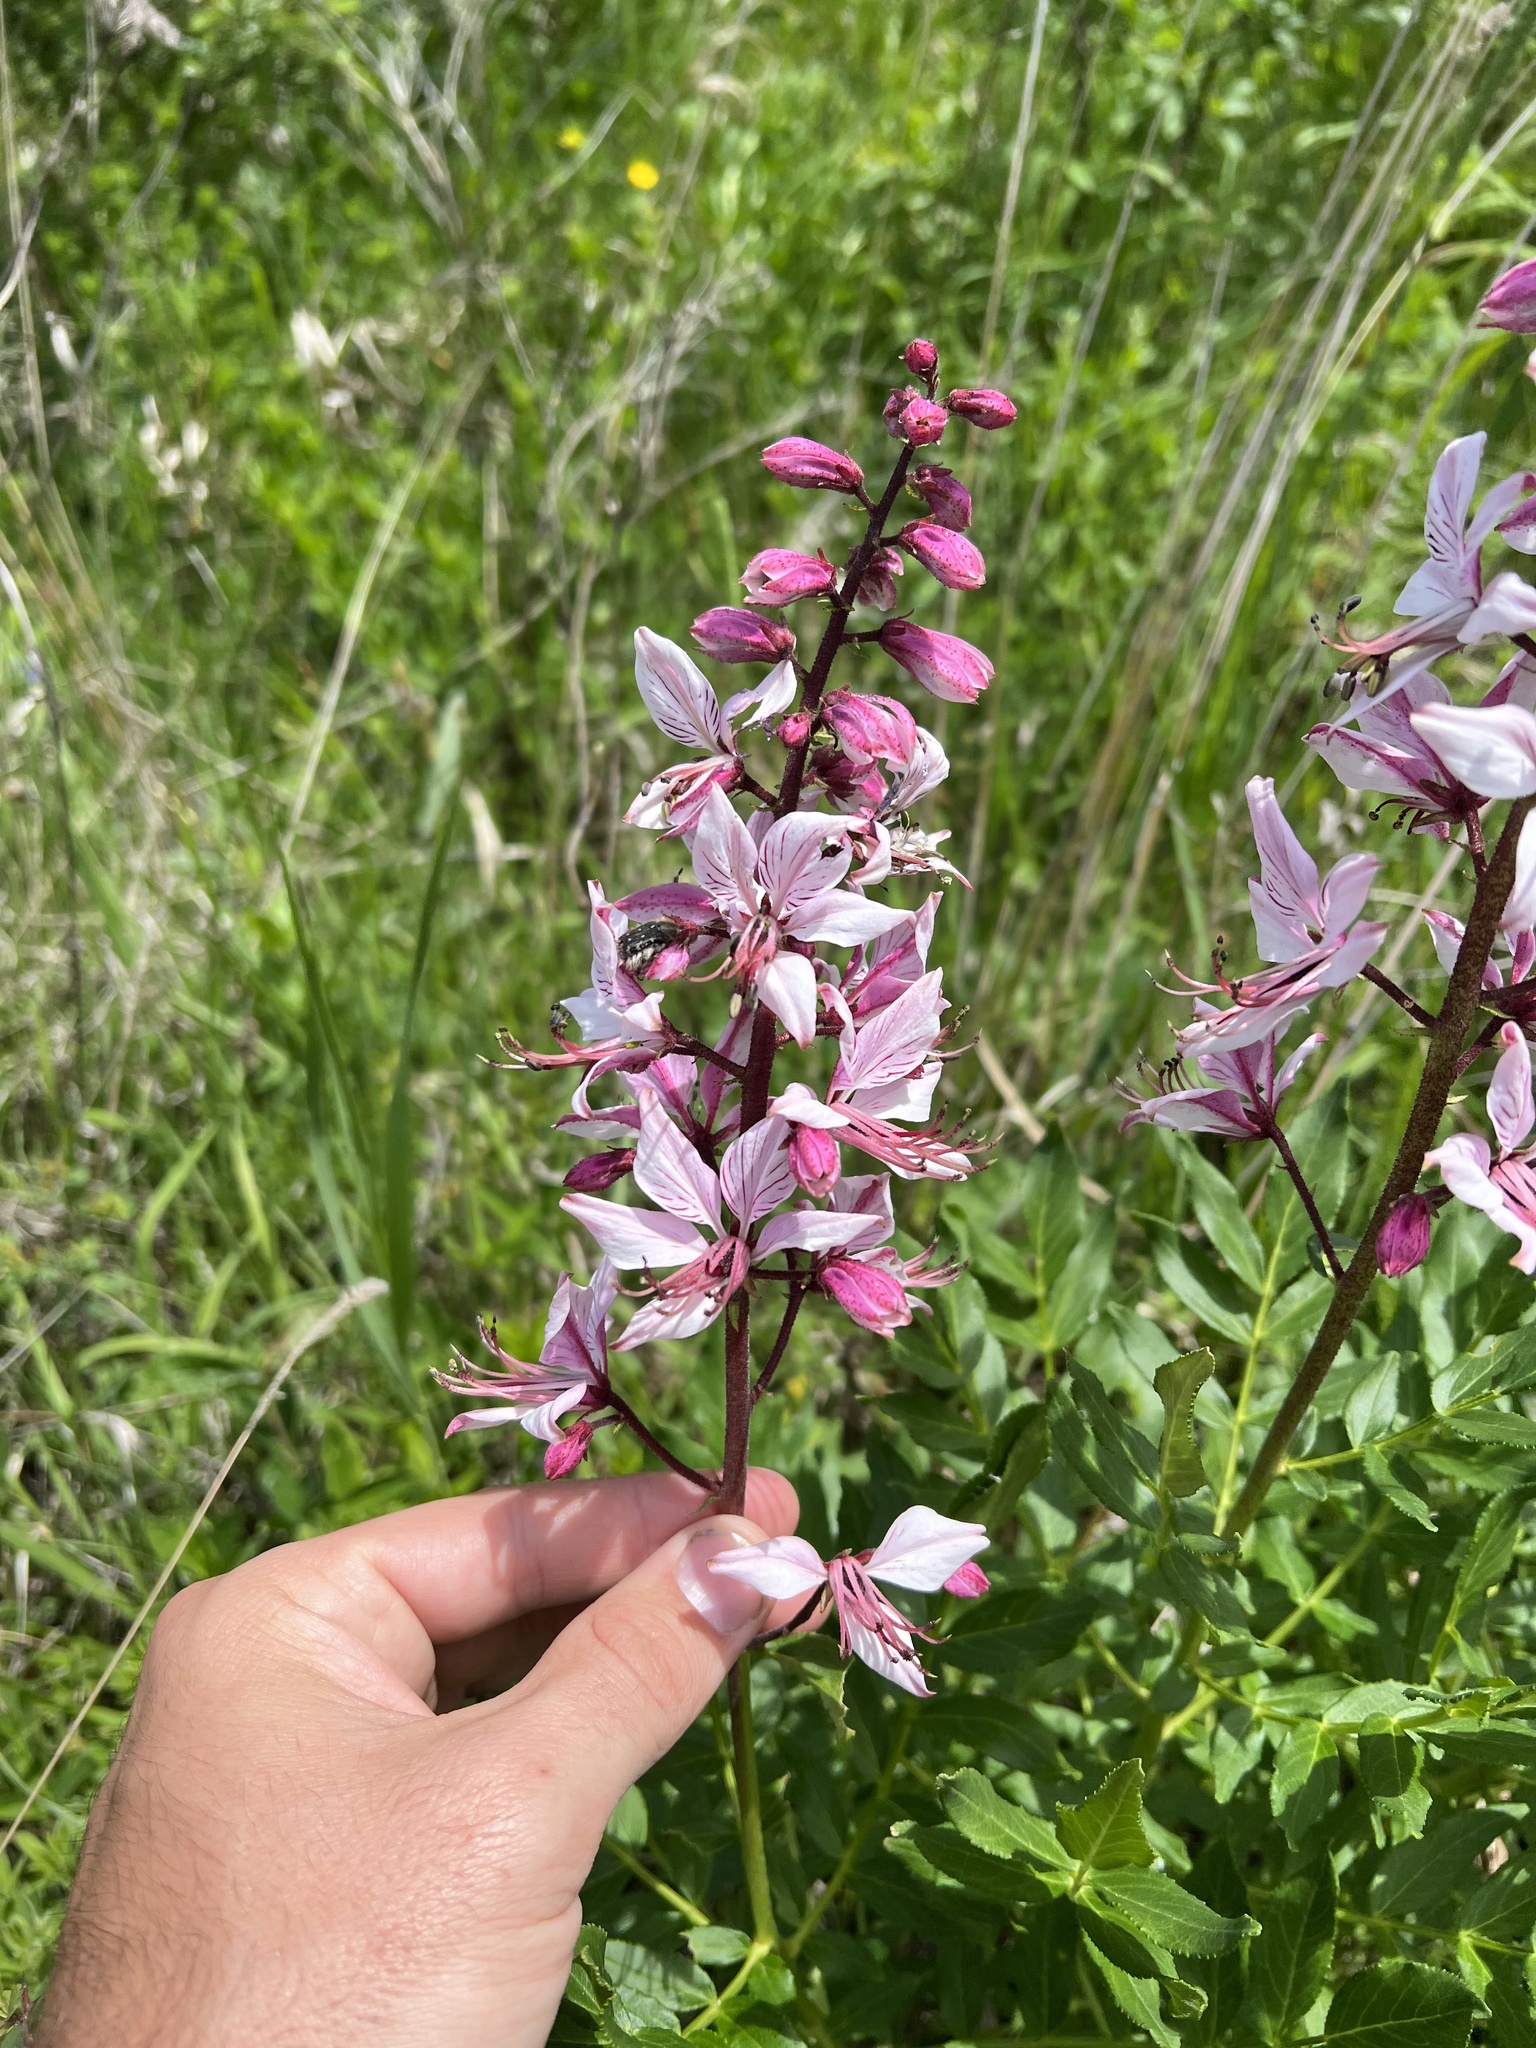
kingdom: Plantae
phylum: Tracheophyta
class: Magnoliopsida
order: Sapindales
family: Rutaceae
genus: Dictamnus
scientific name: Dictamnus albus
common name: Gasplant
